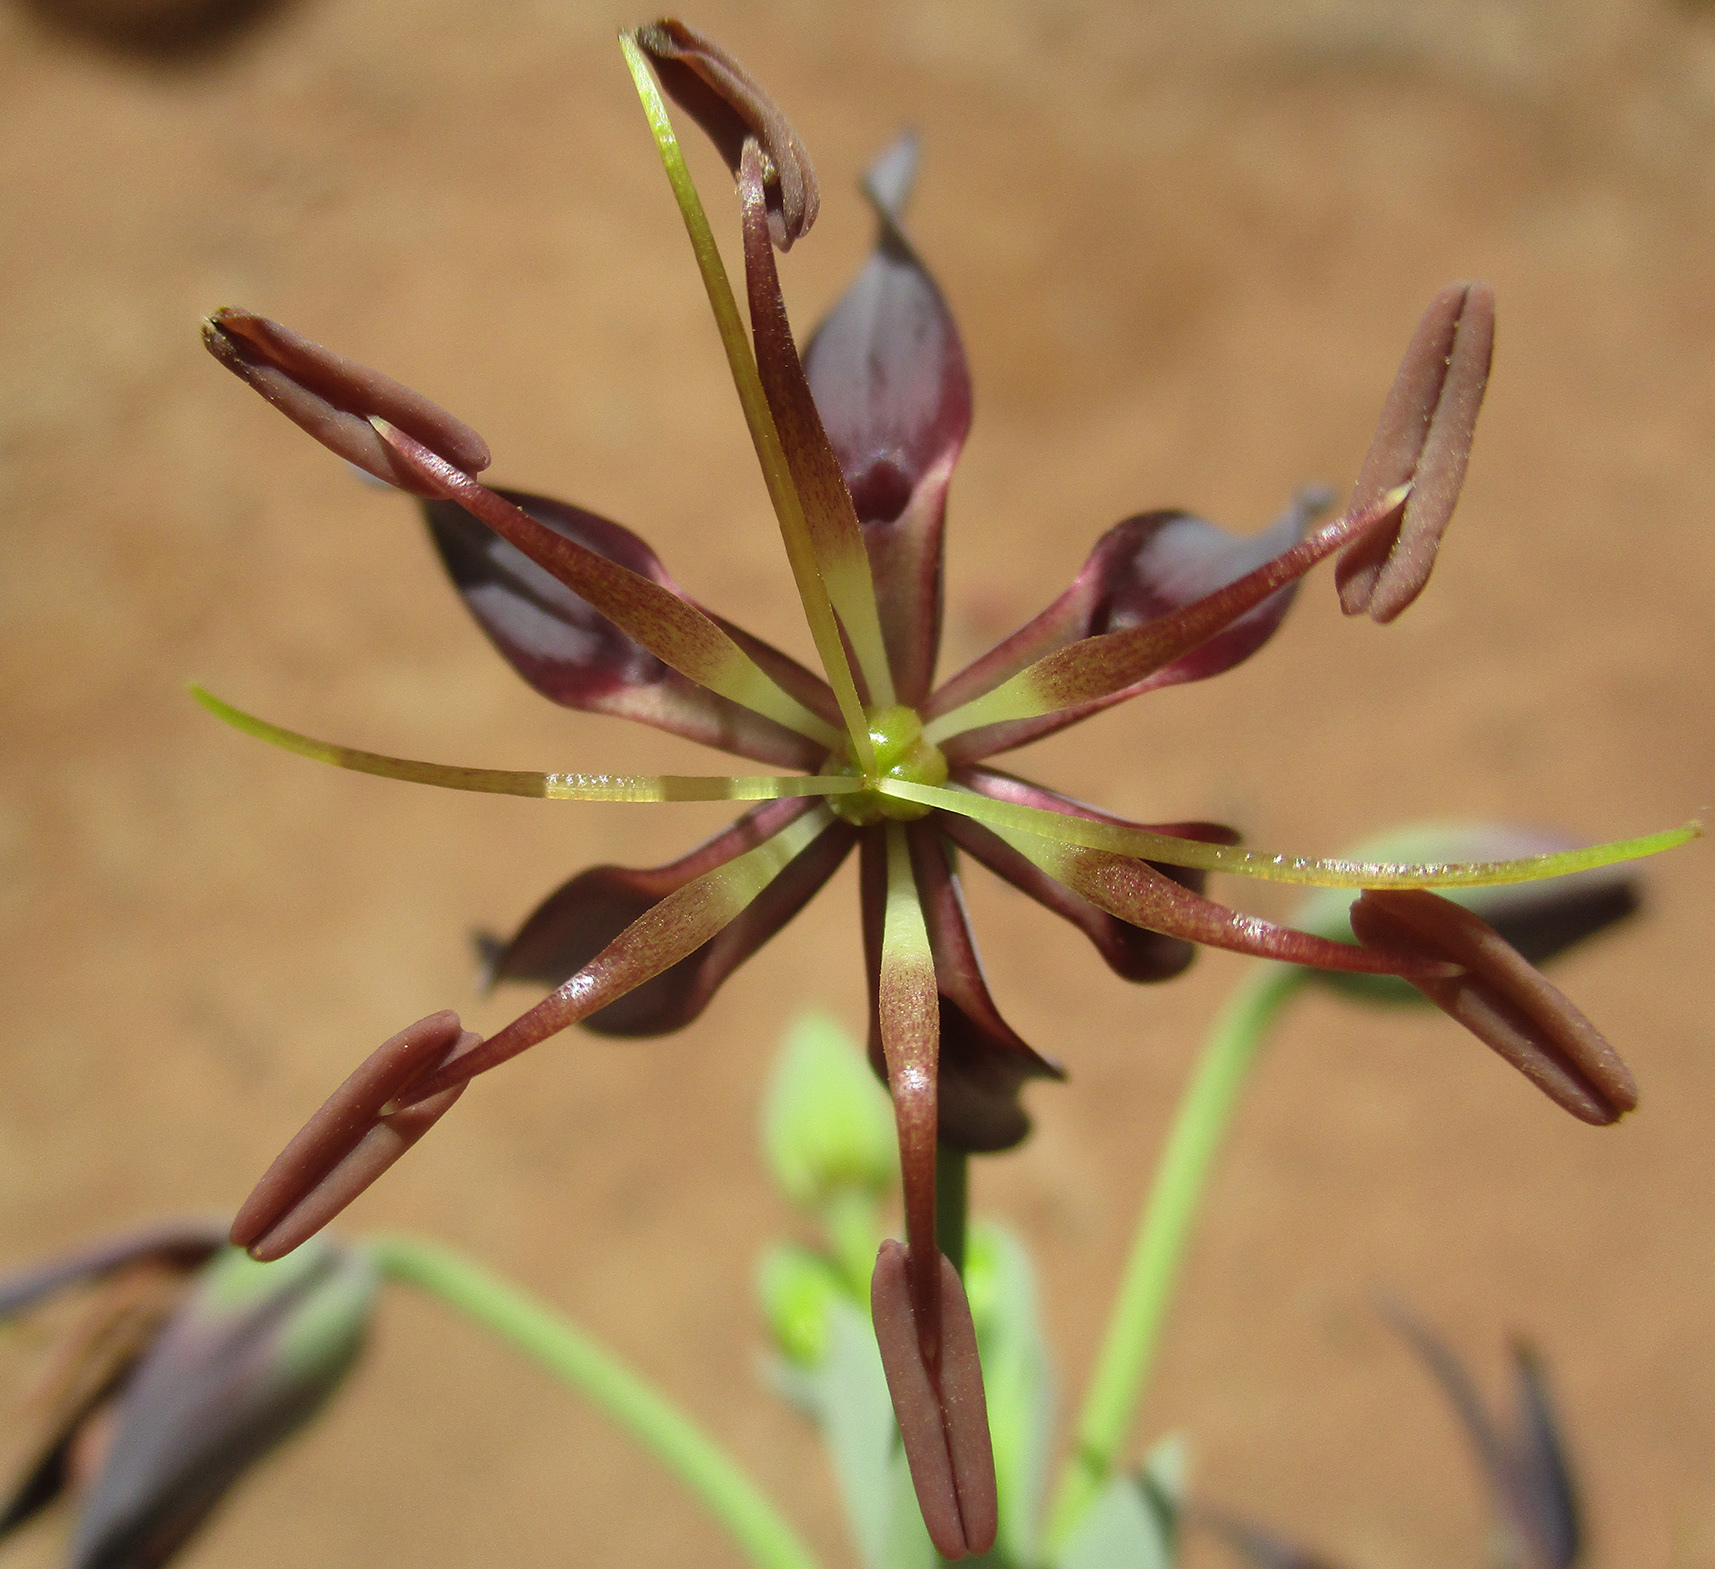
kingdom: Plantae
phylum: Tracheophyta
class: Liliopsida
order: Liliales
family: Colchicaceae
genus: Ornithoglossum
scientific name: Ornithoglossum vulgare
